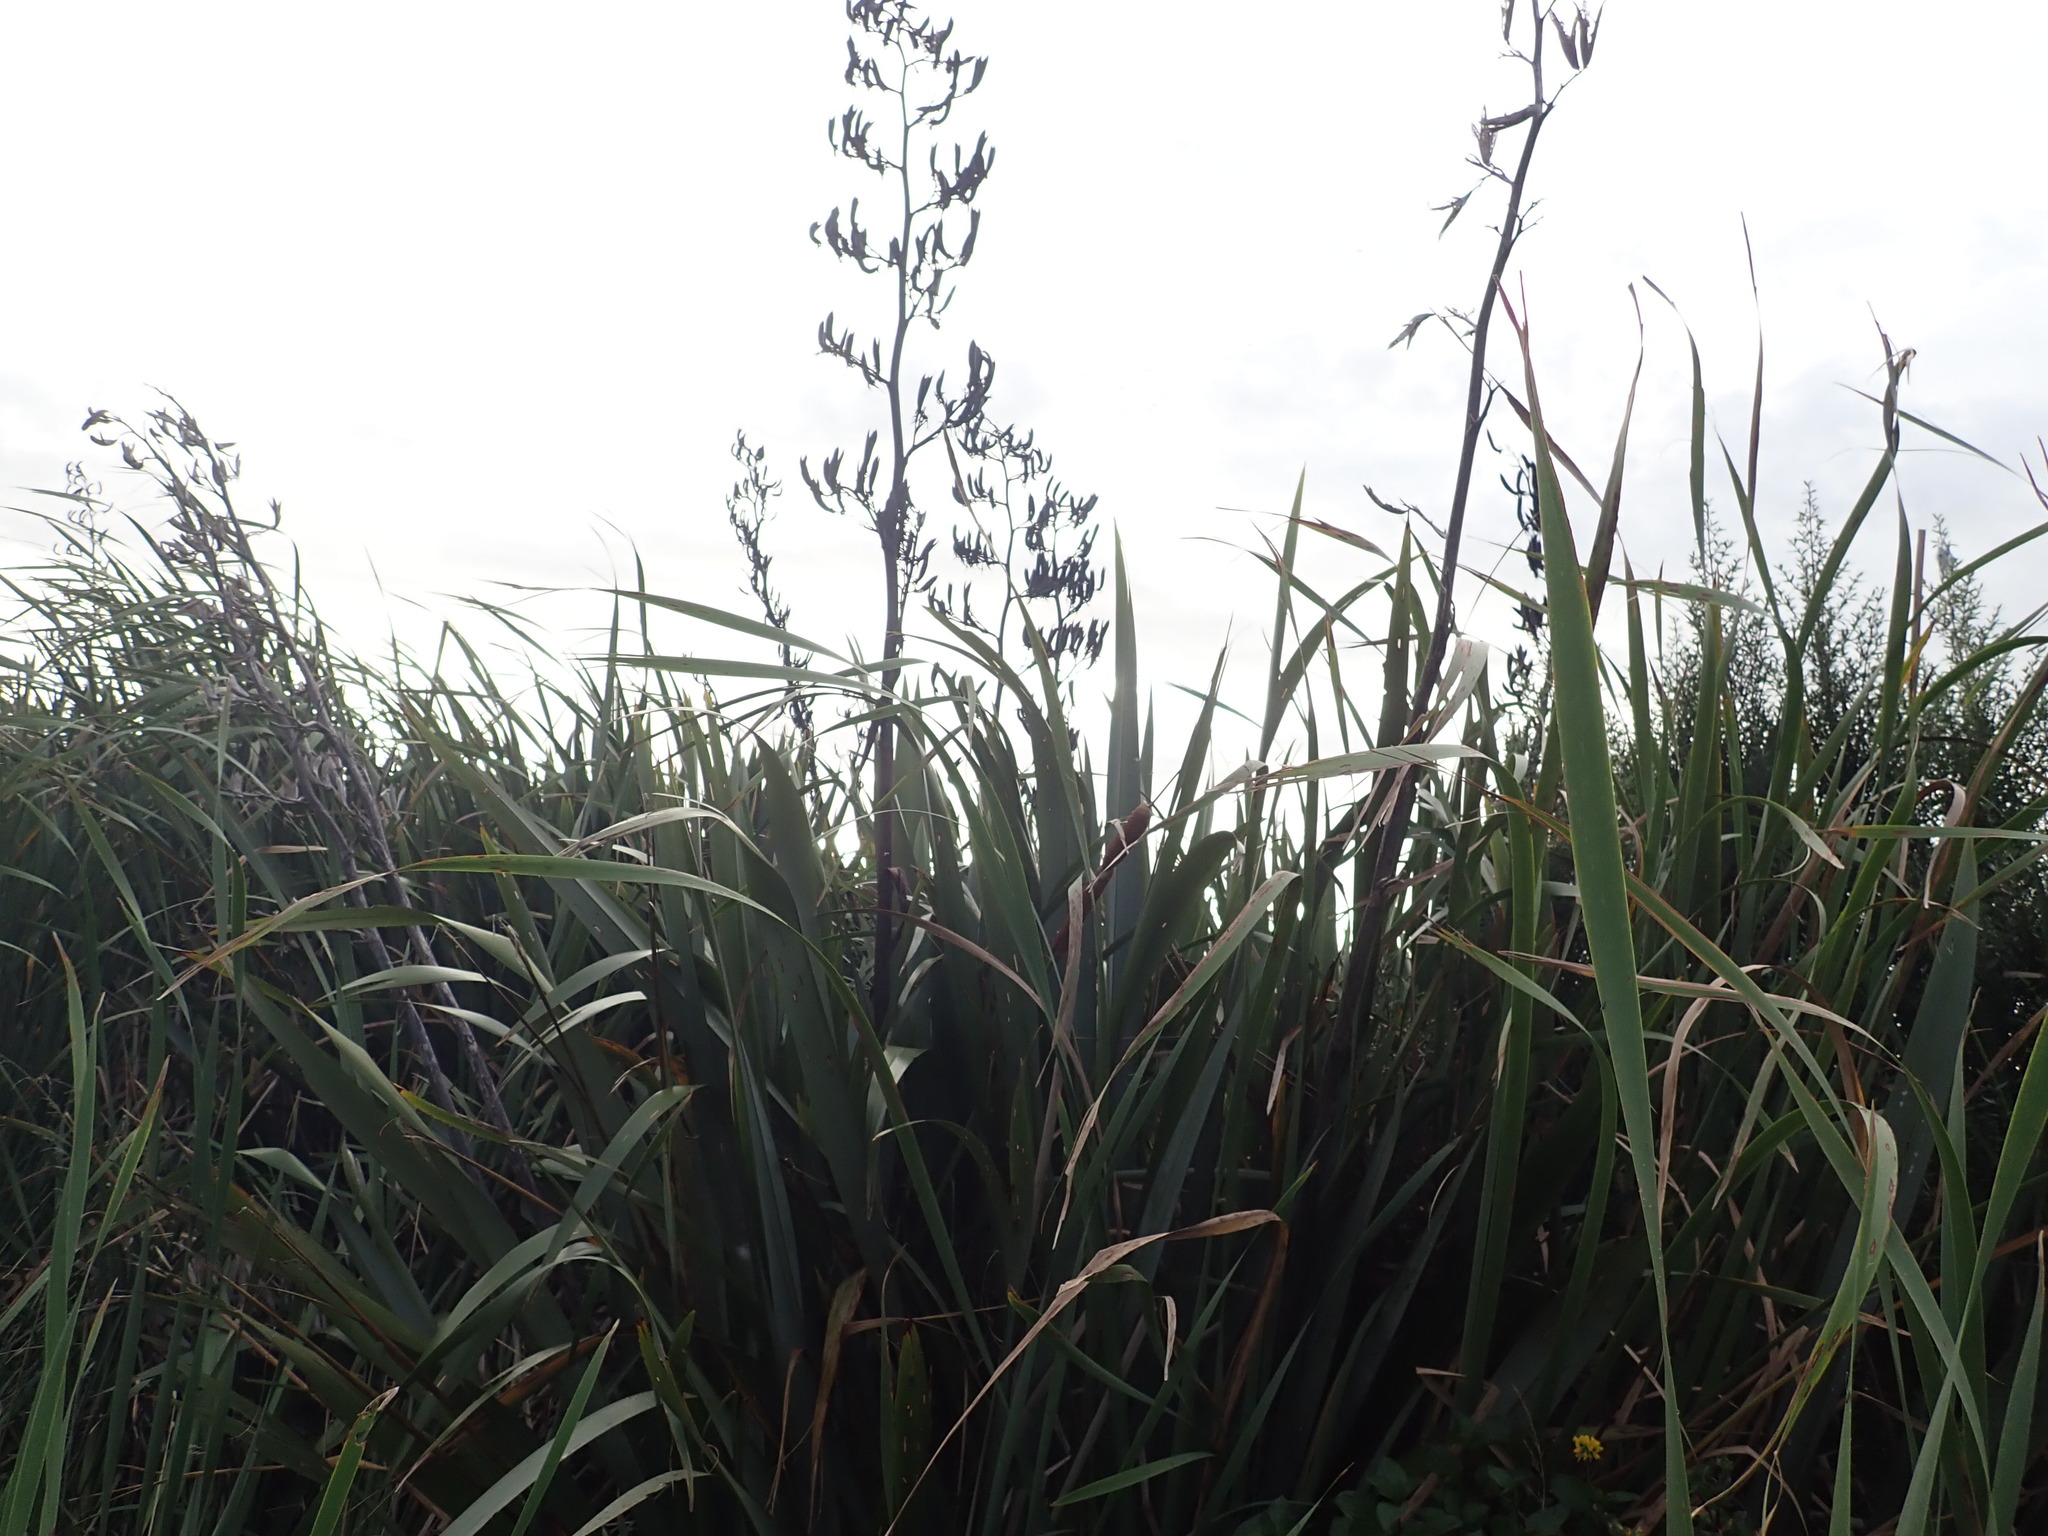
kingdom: Plantae
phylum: Tracheophyta
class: Liliopsida
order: Asparagales
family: Asphodelaceae
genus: Phormium
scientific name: Phormium tenax
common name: New zealand flax
